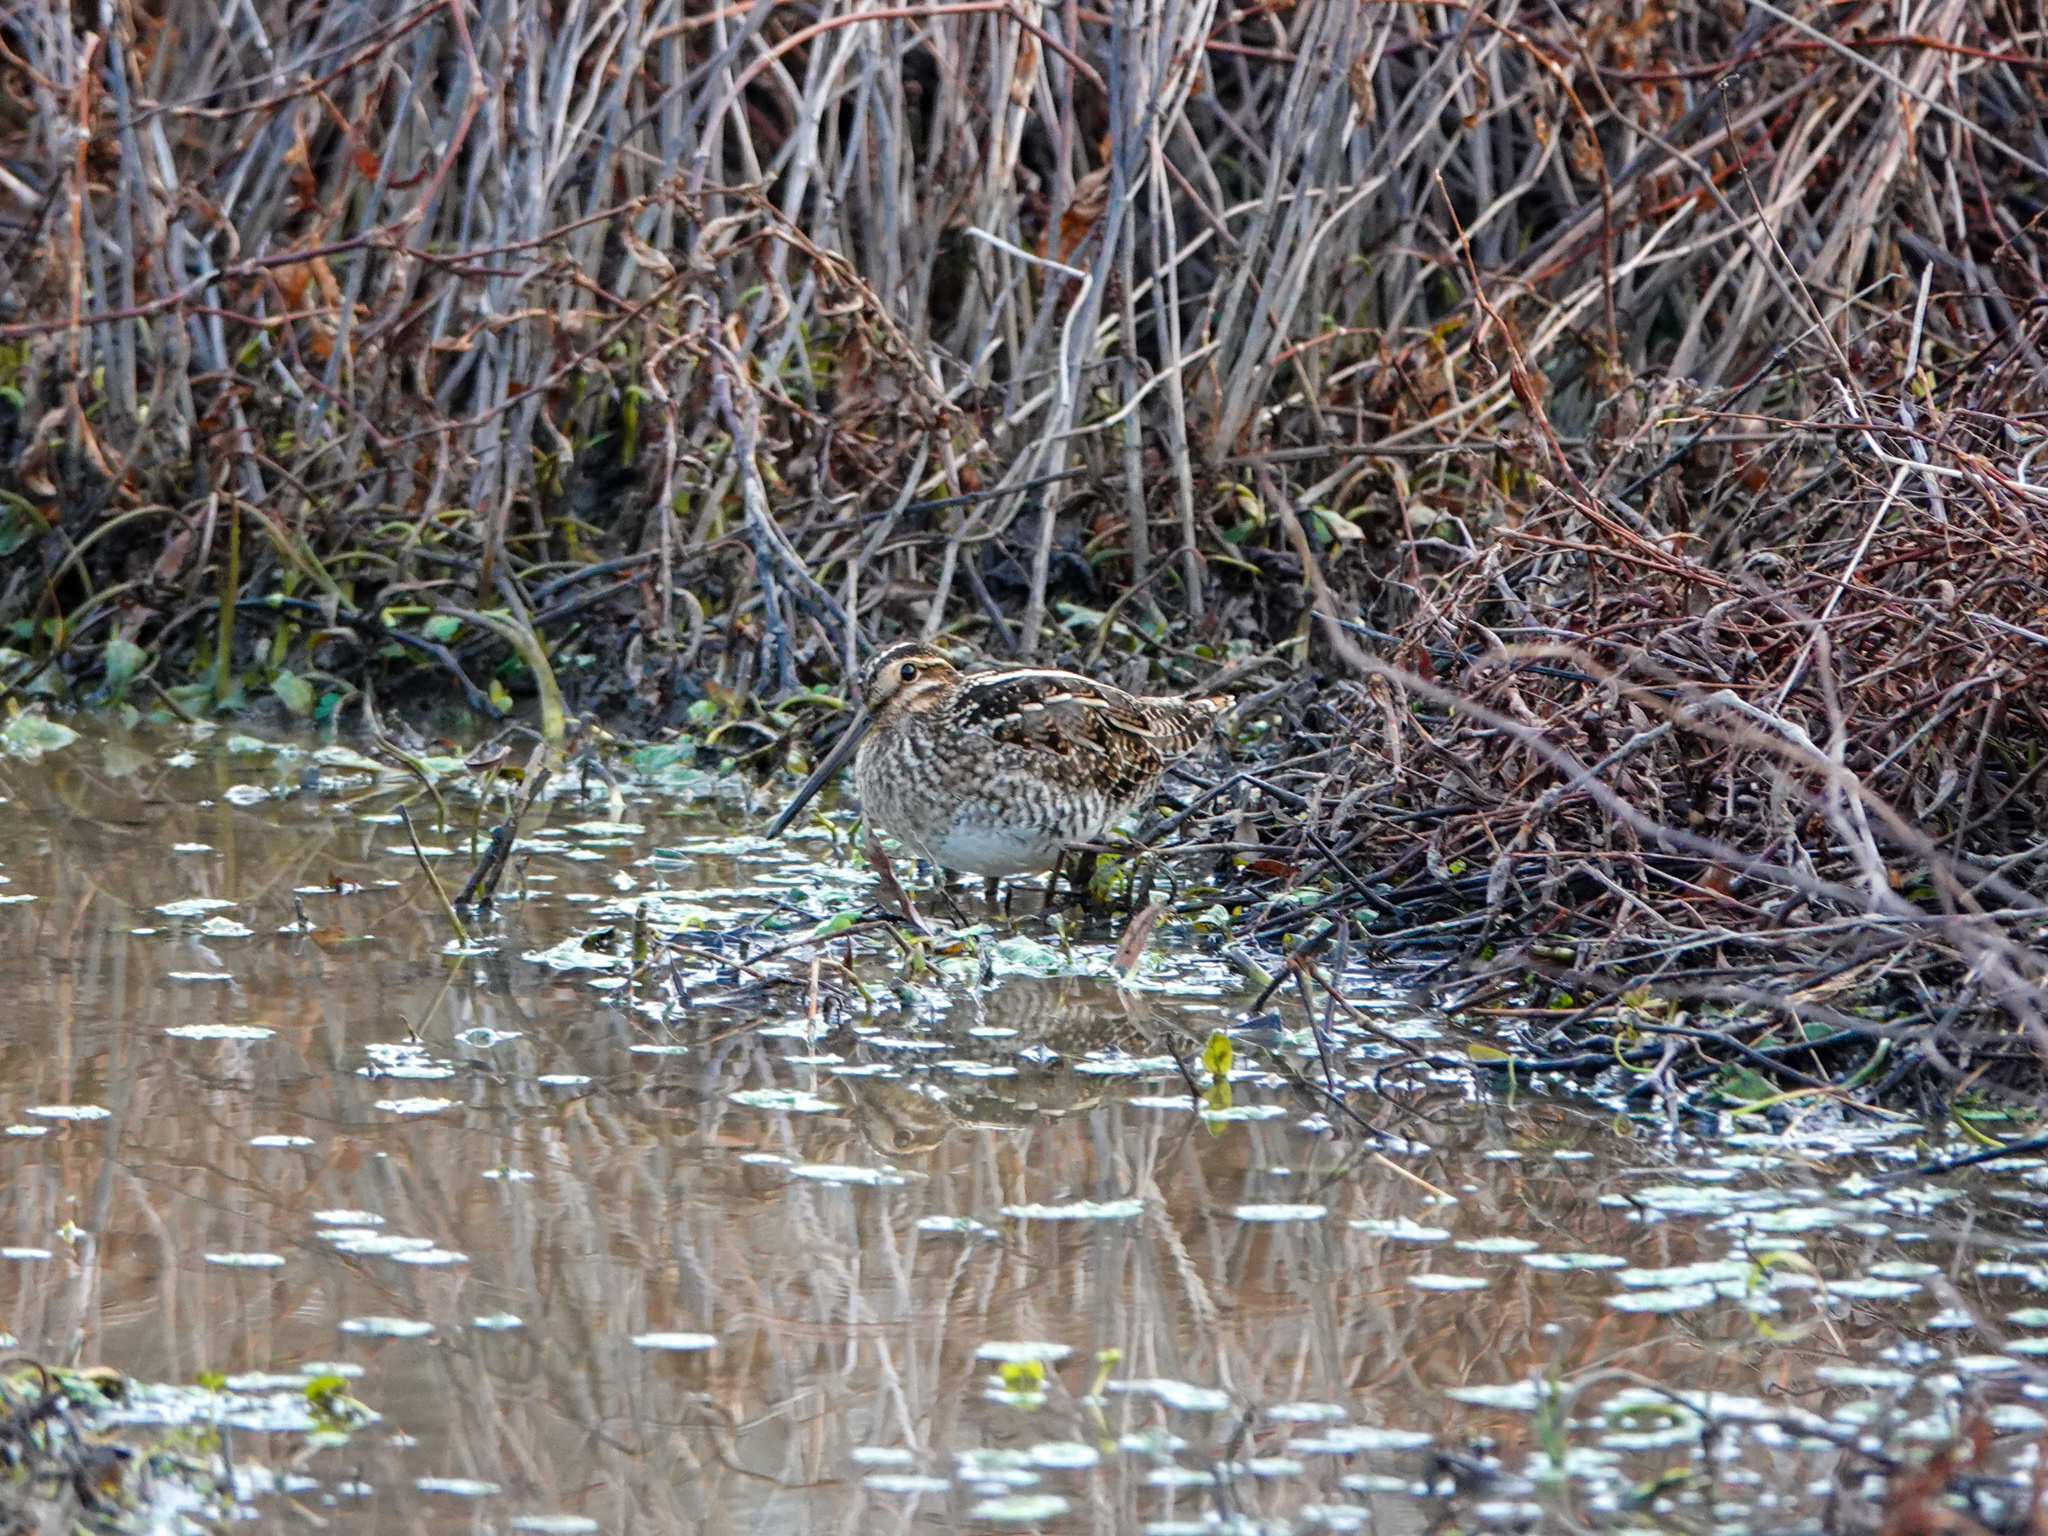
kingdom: Animalia
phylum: Chordata
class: Aves
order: Charadriiformes
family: Scolopacidae
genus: Gallinago
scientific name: Gallinago delicata
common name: Wilson's snipe
